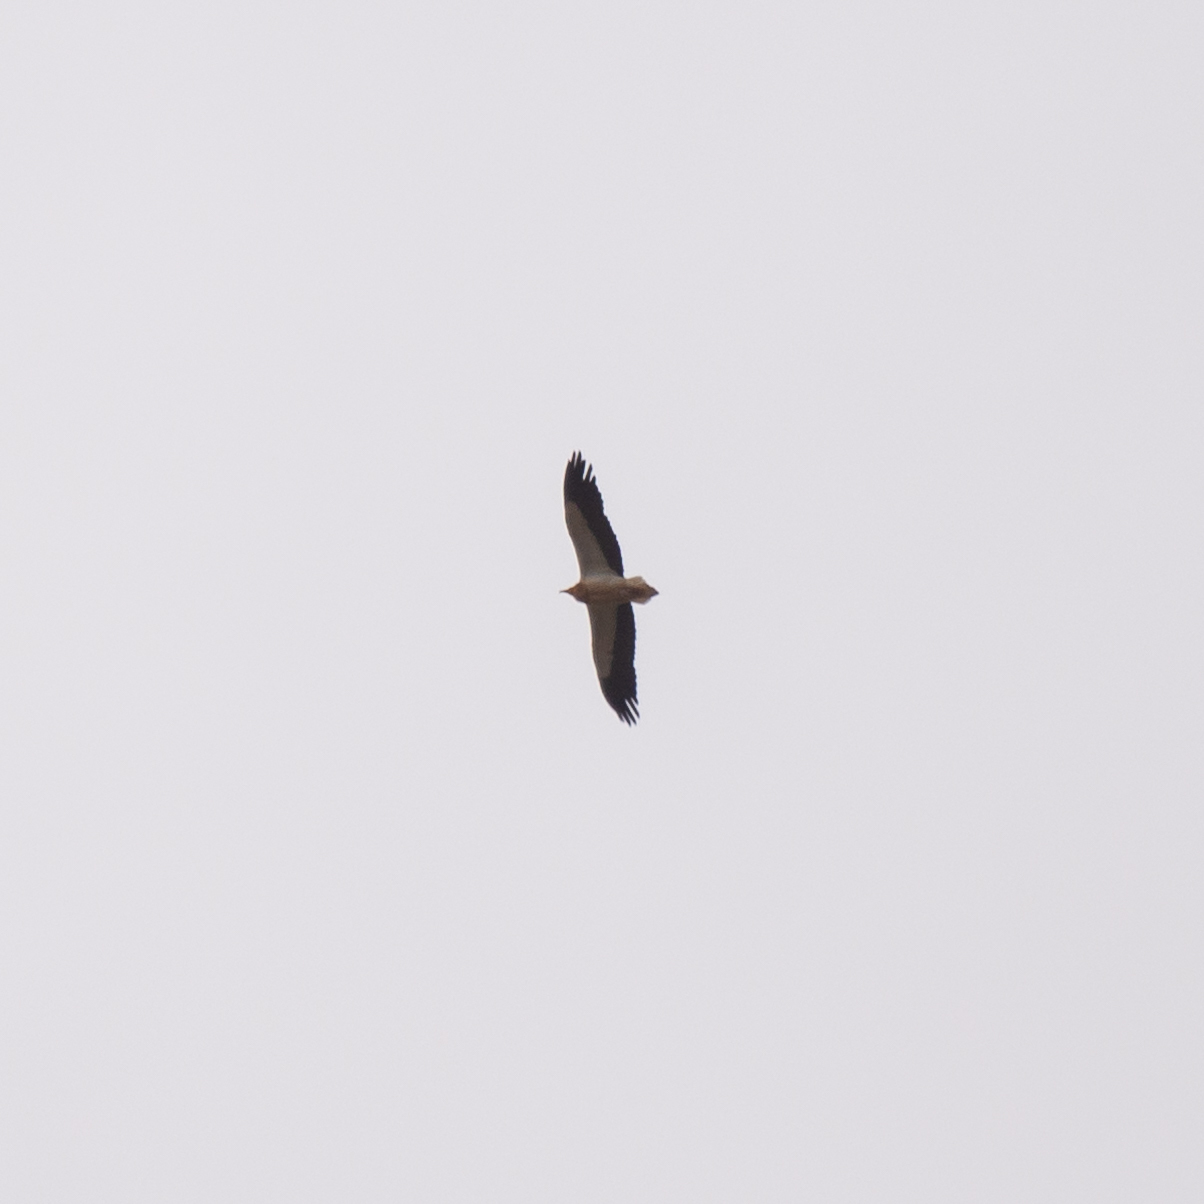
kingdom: Animalia
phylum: Chordata
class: Aves
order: Accipitriformes
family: Accipitridae
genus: Neophron
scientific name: Neophron percnopterus
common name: Egyptian vulture
